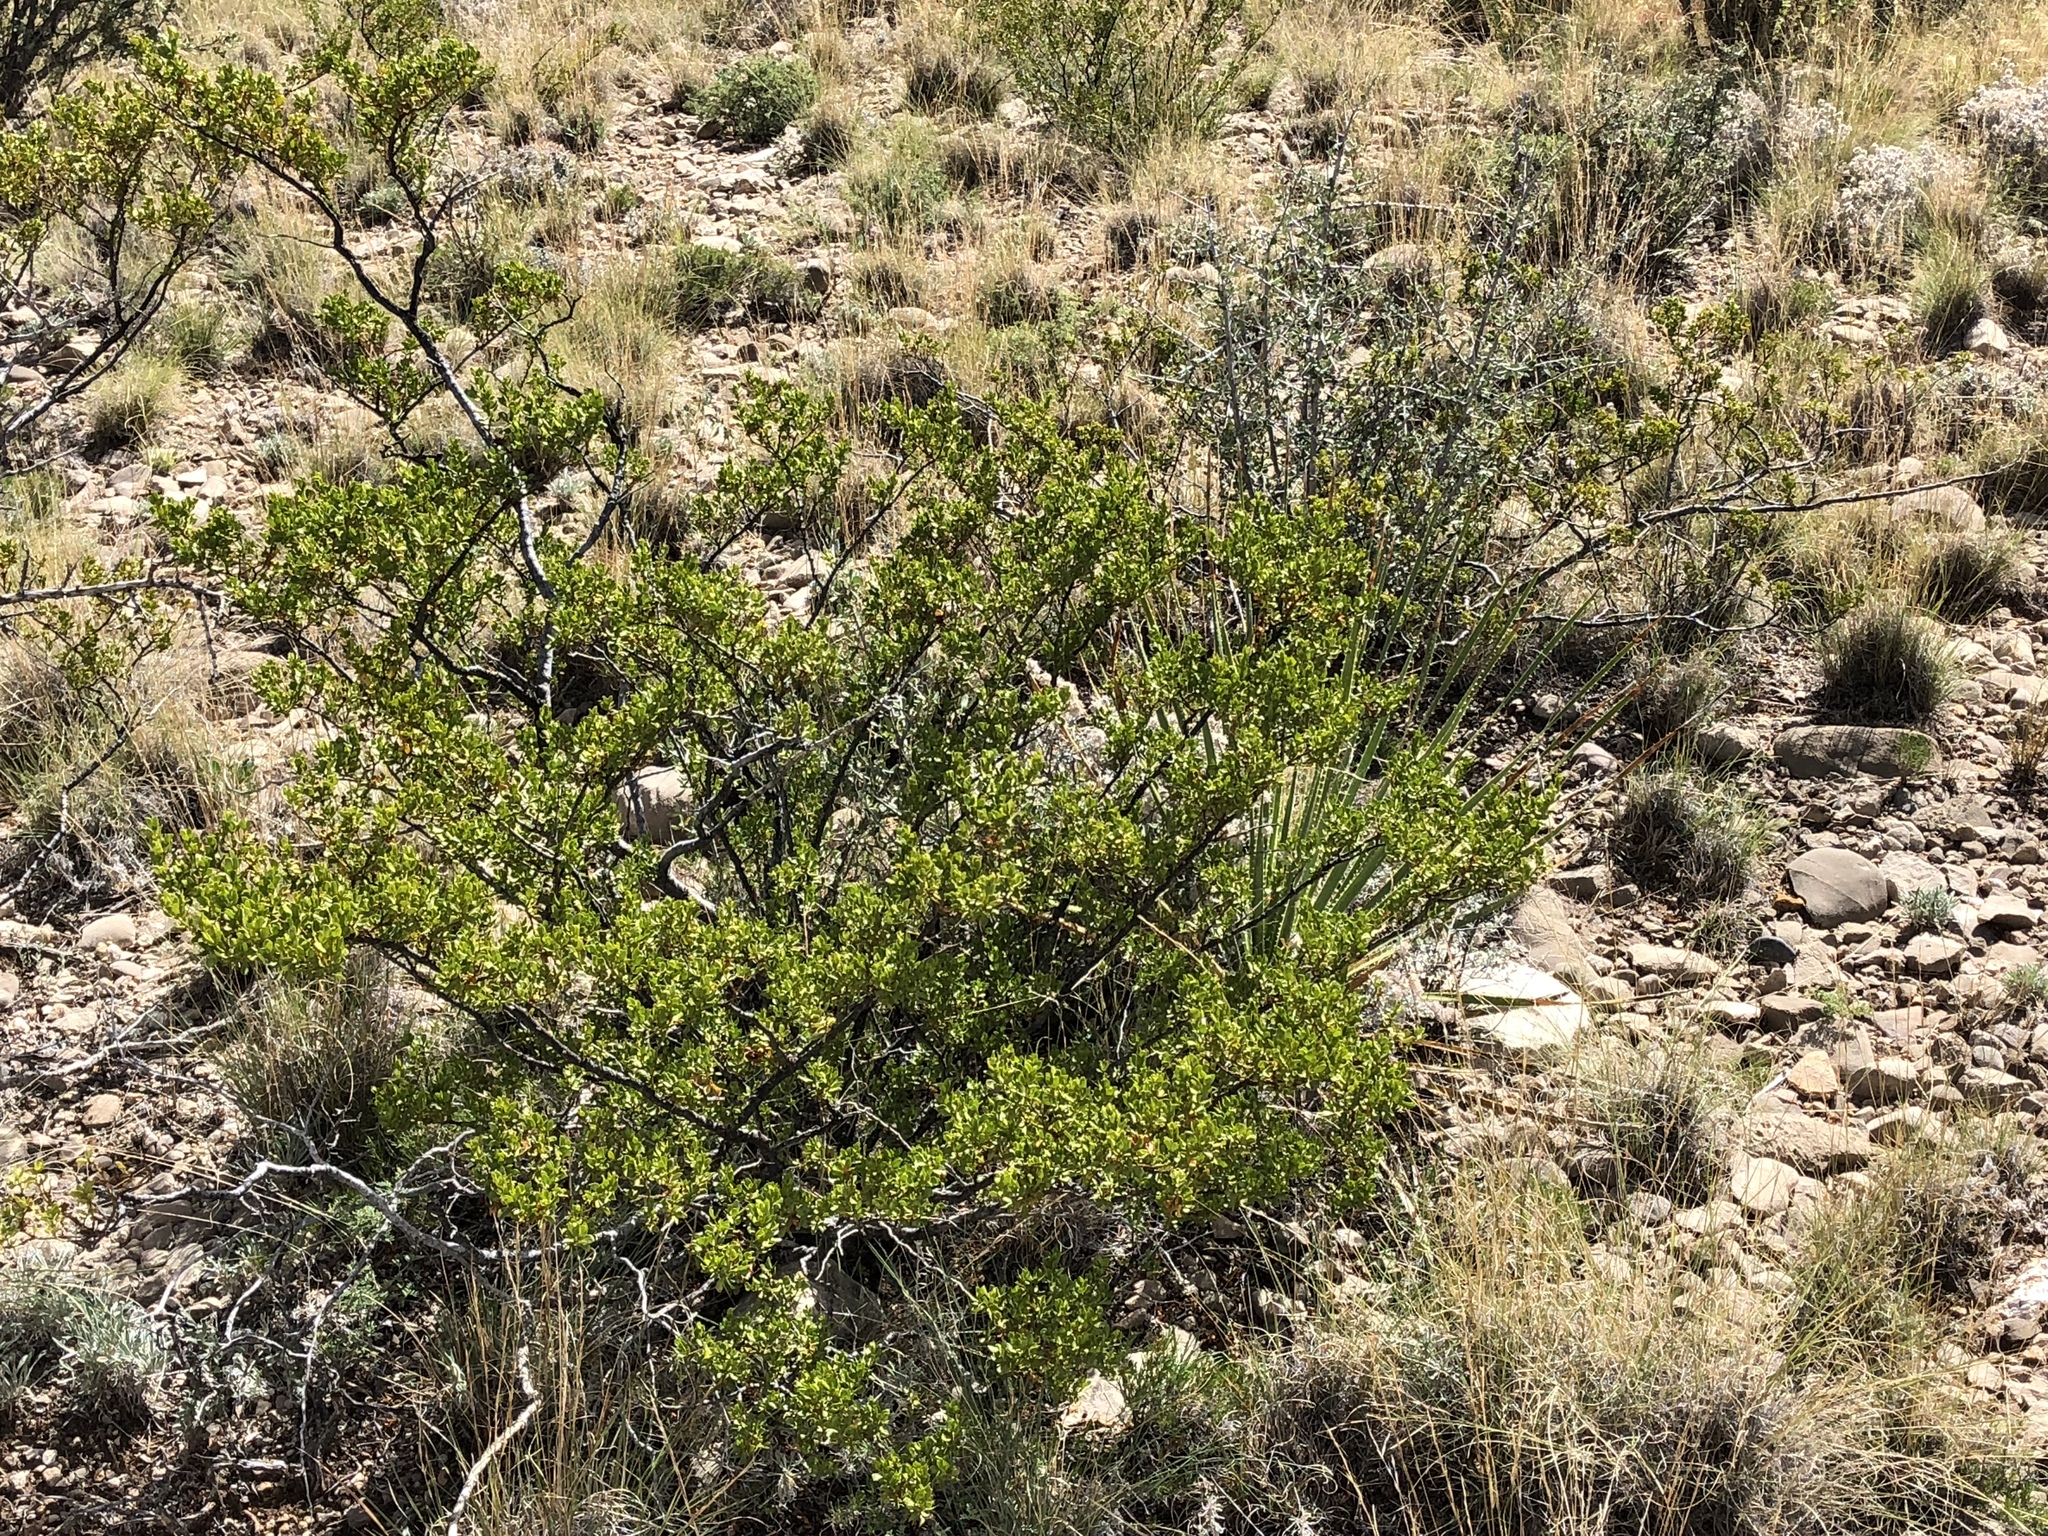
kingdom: Plantae
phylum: Tracheophyta
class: Magnoliopsida
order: Zygophyllales
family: Zygophyllaceae
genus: Larrea
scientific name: Larrea tridentata
